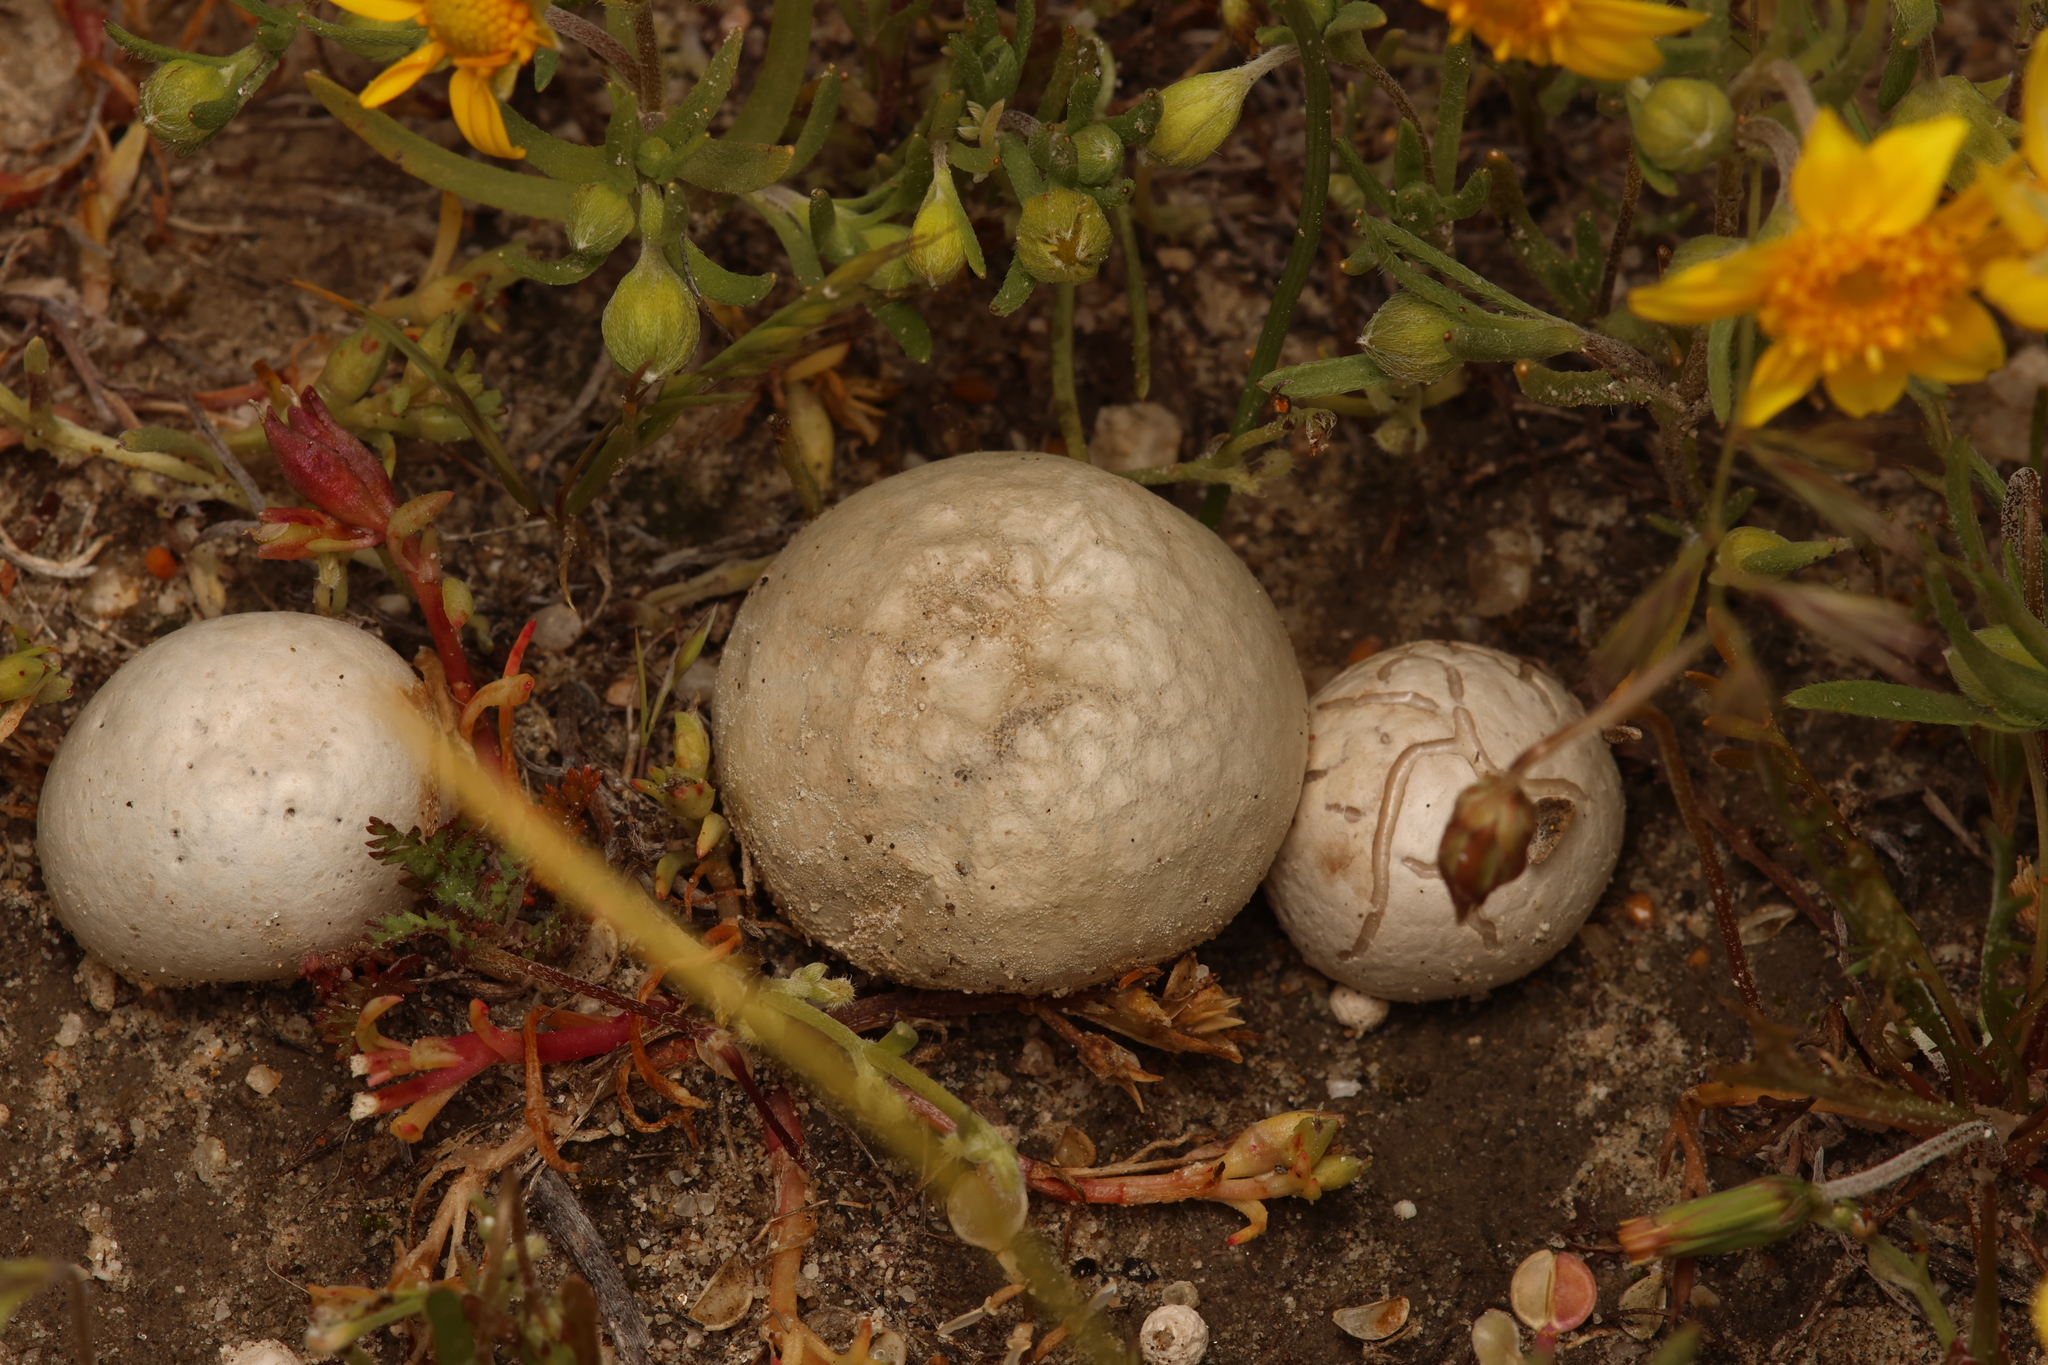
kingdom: Fungi
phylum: Basidiomycota
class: Agaricomycetes
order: Agaricales
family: Lycoperdaceae
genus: Bovista
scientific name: Bovista plumbea
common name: Grey puffball
